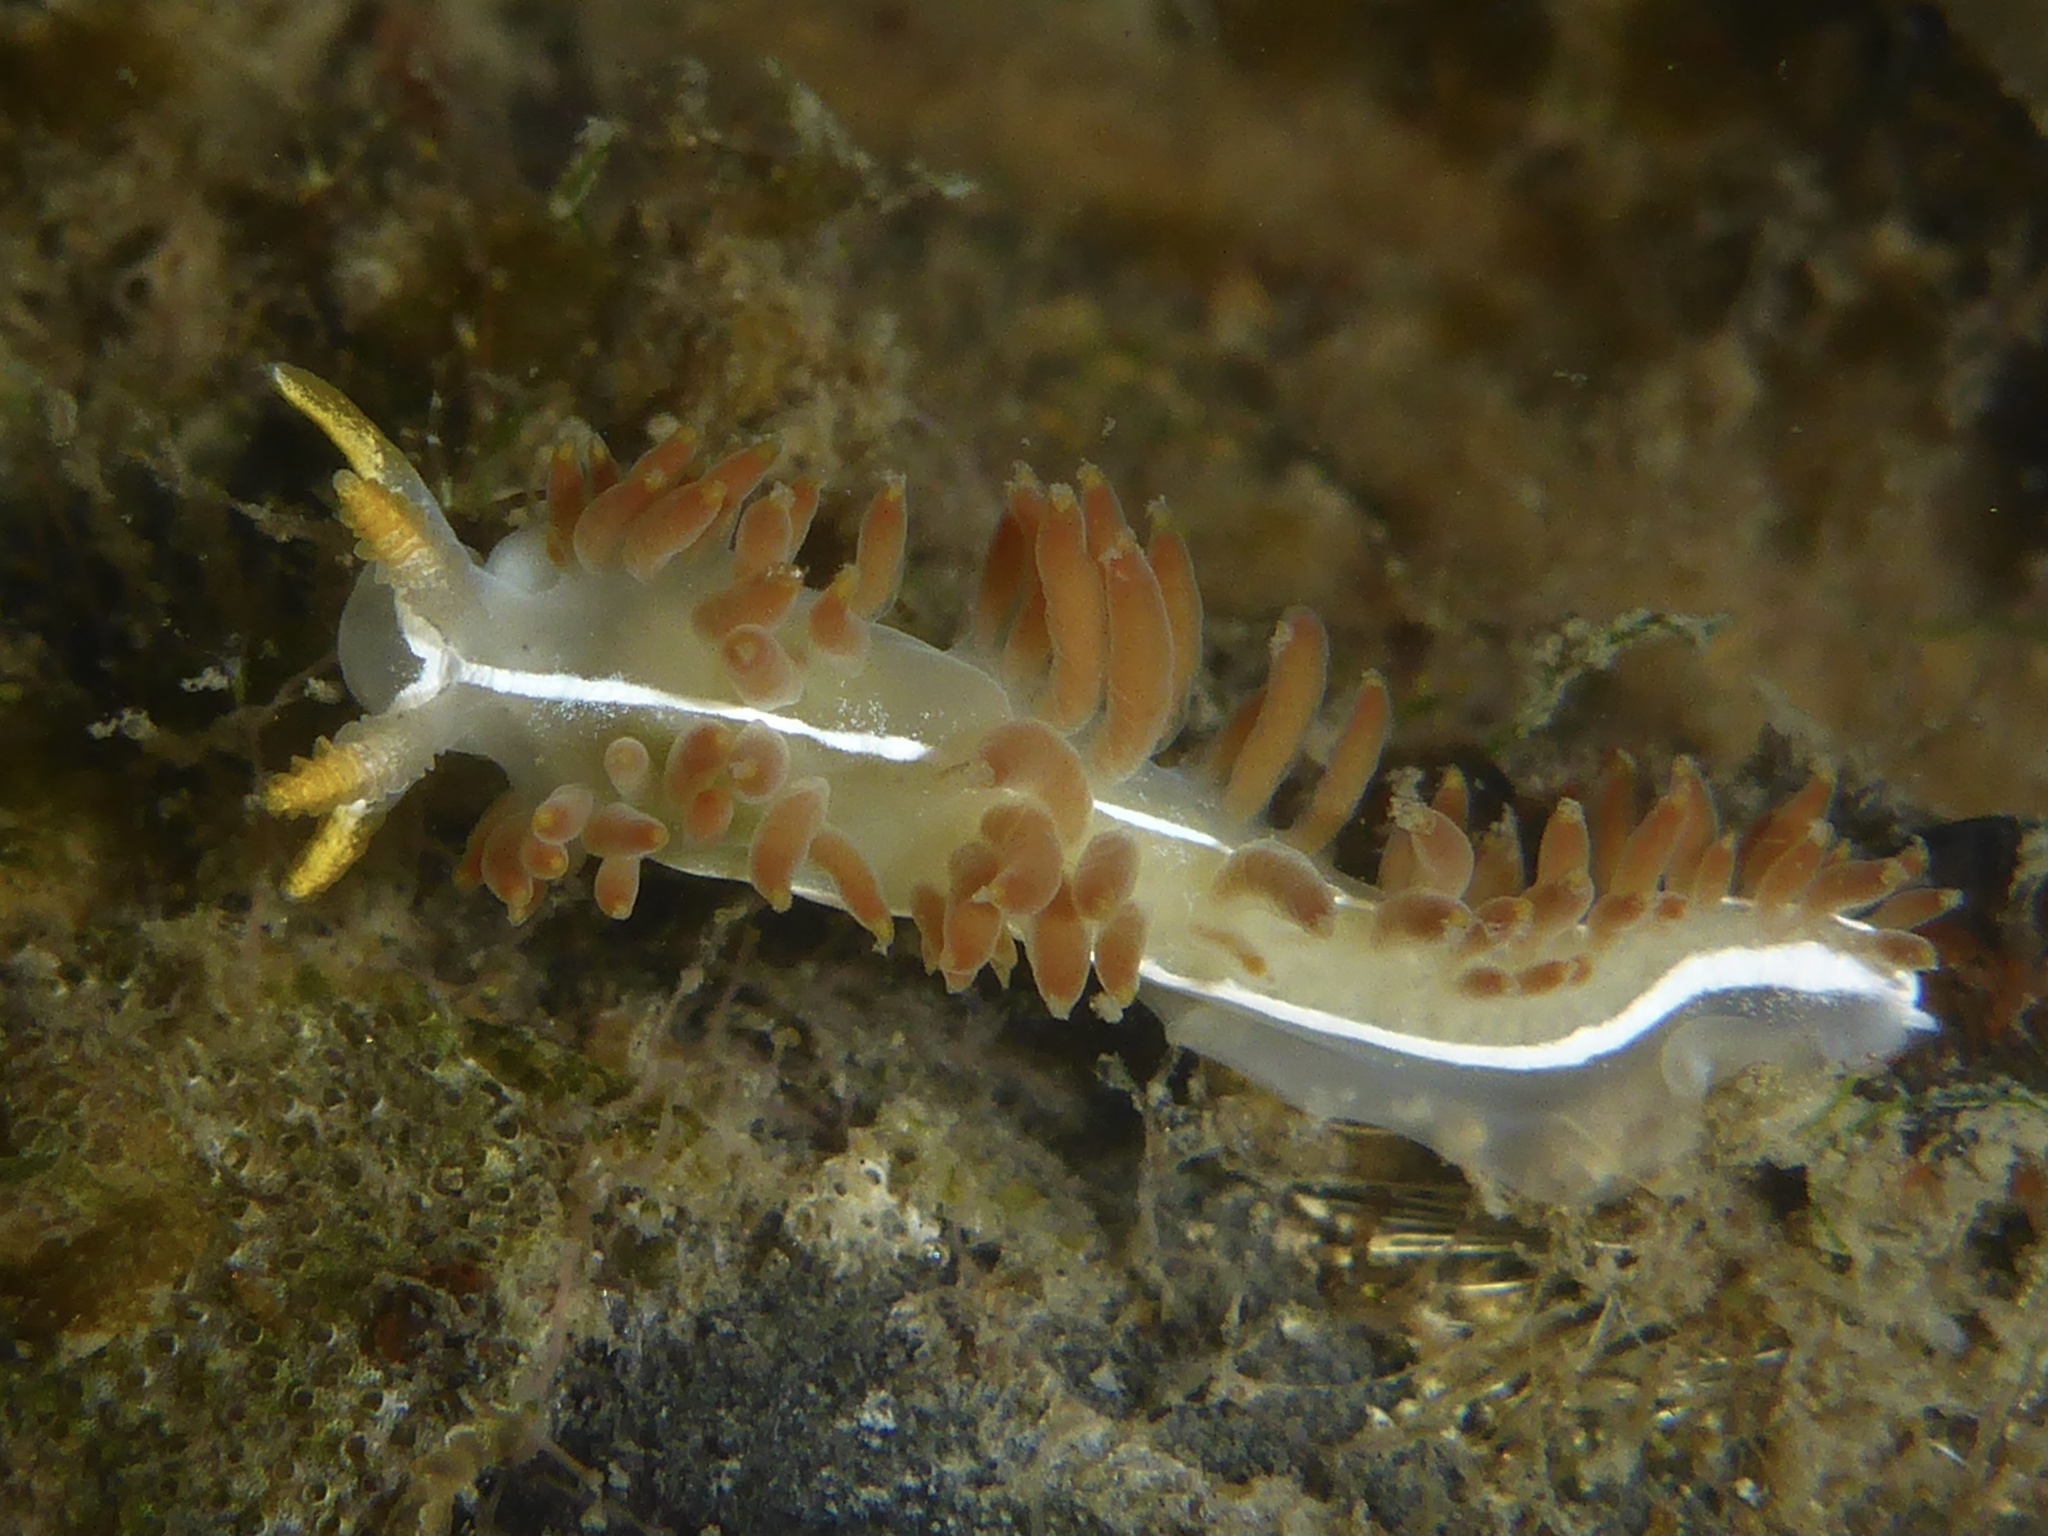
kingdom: Animalia
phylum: Mollusca
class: Gastropoda
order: Nudibranchia
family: Coryphellidae
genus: Coryphella
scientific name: Coryphella trilineata
